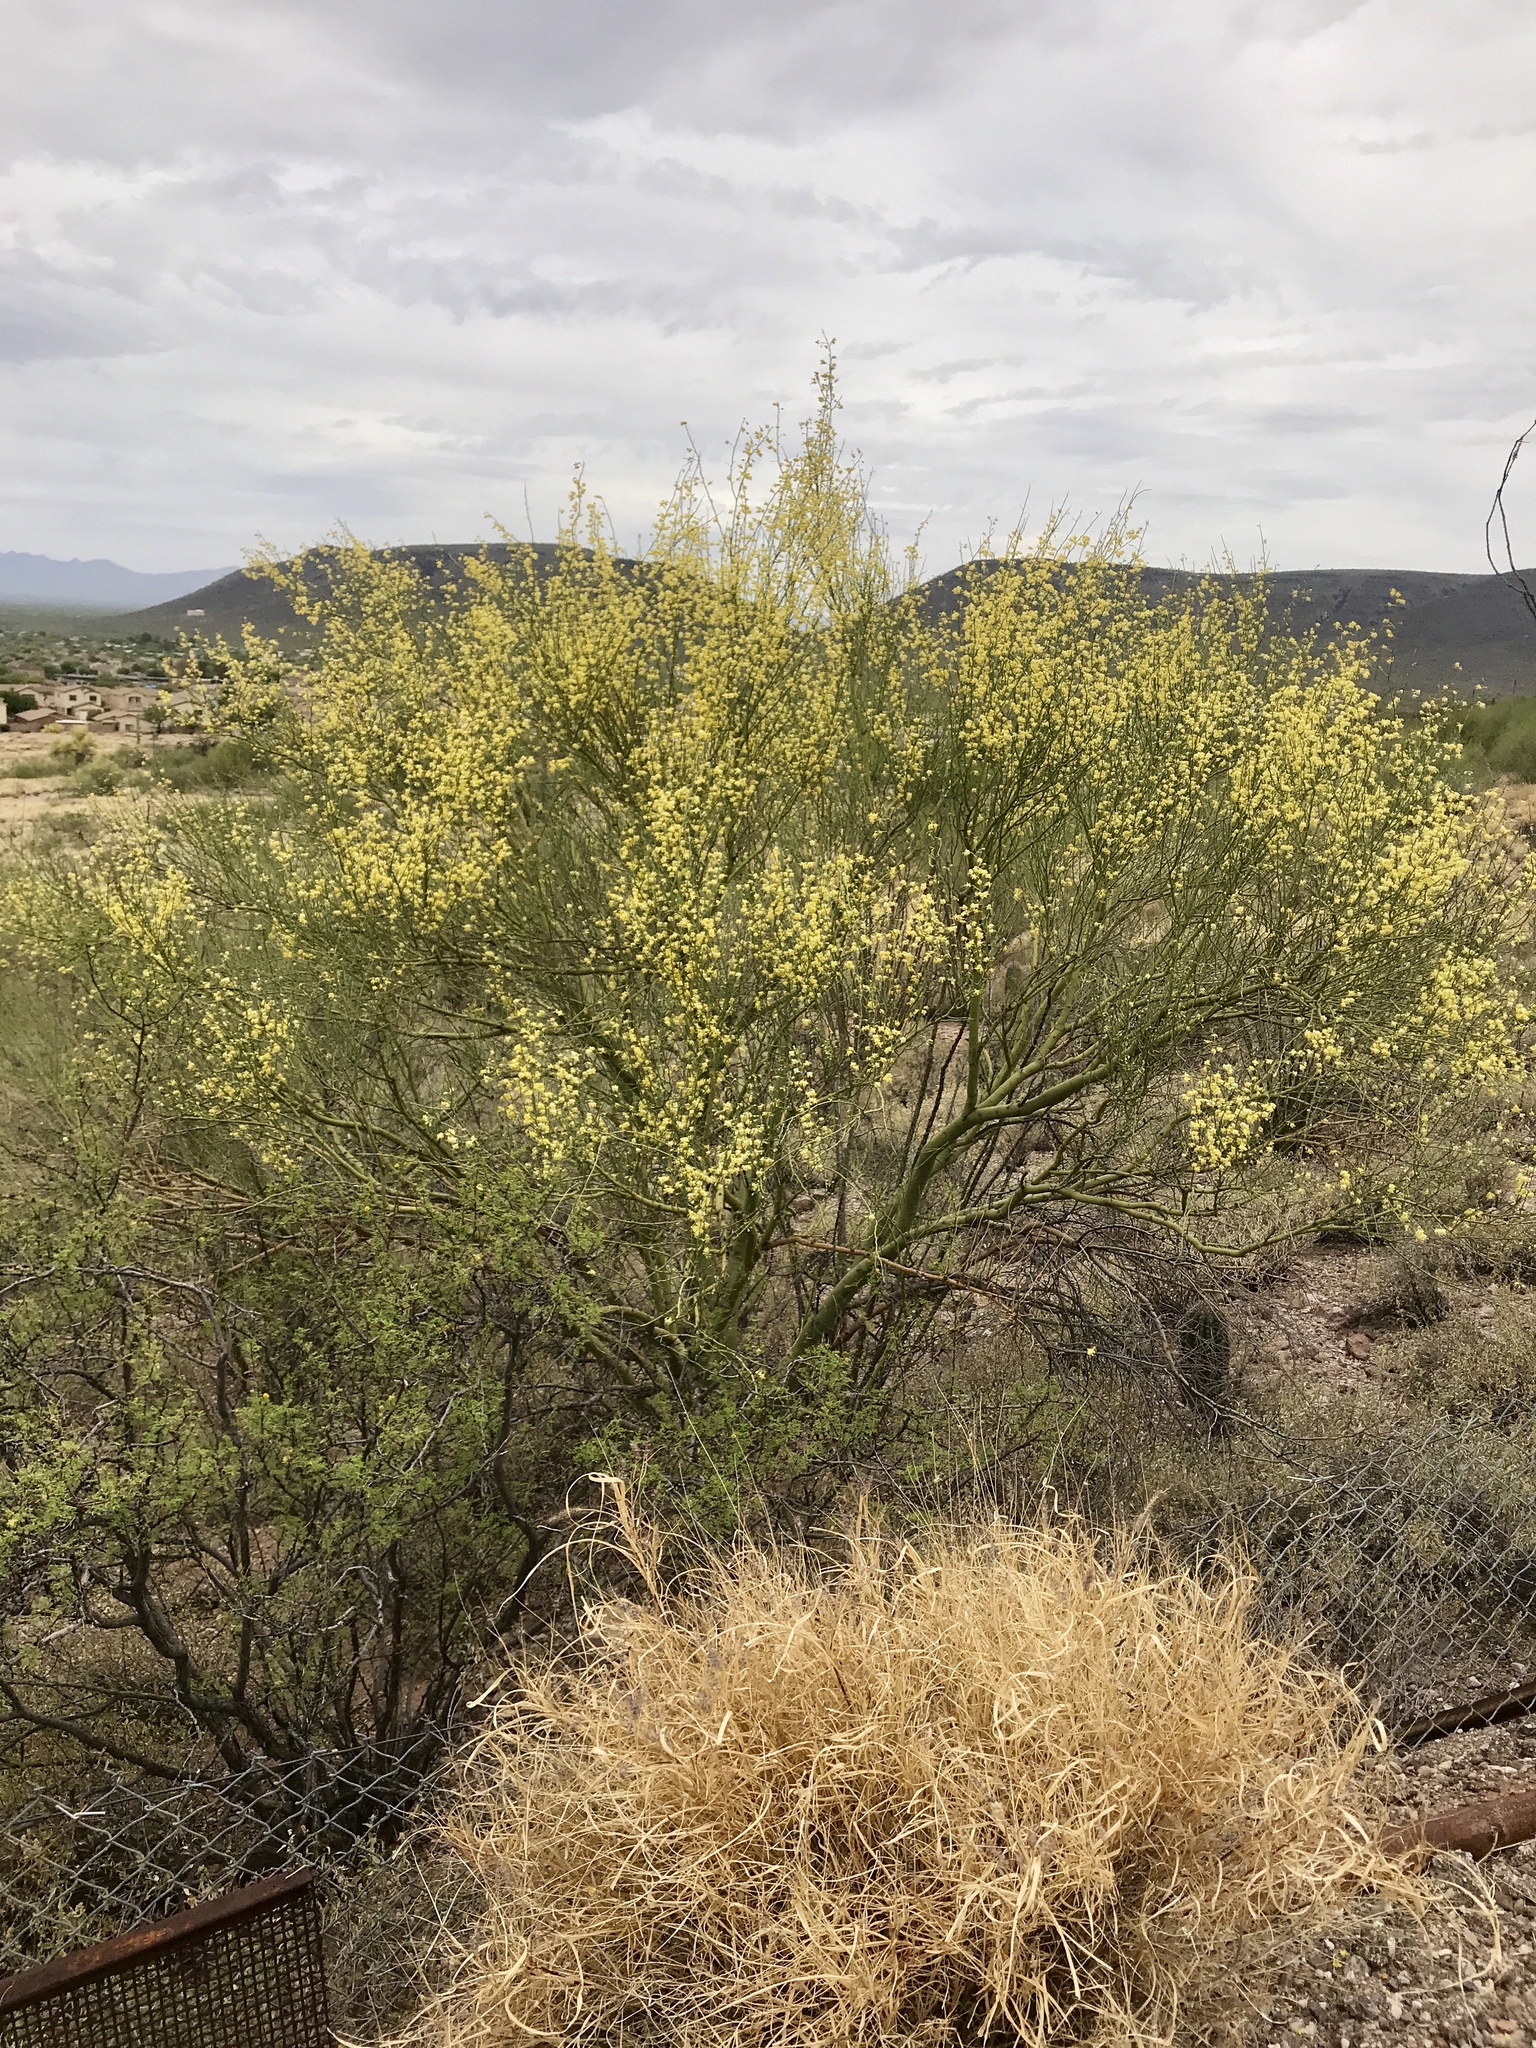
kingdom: Plantae
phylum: Tracheophyta
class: Magnoliopsida
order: Fabales
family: Fabaceae
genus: Parkinsonia
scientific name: Parkinsonia microphylla
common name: Yellow paloverde
